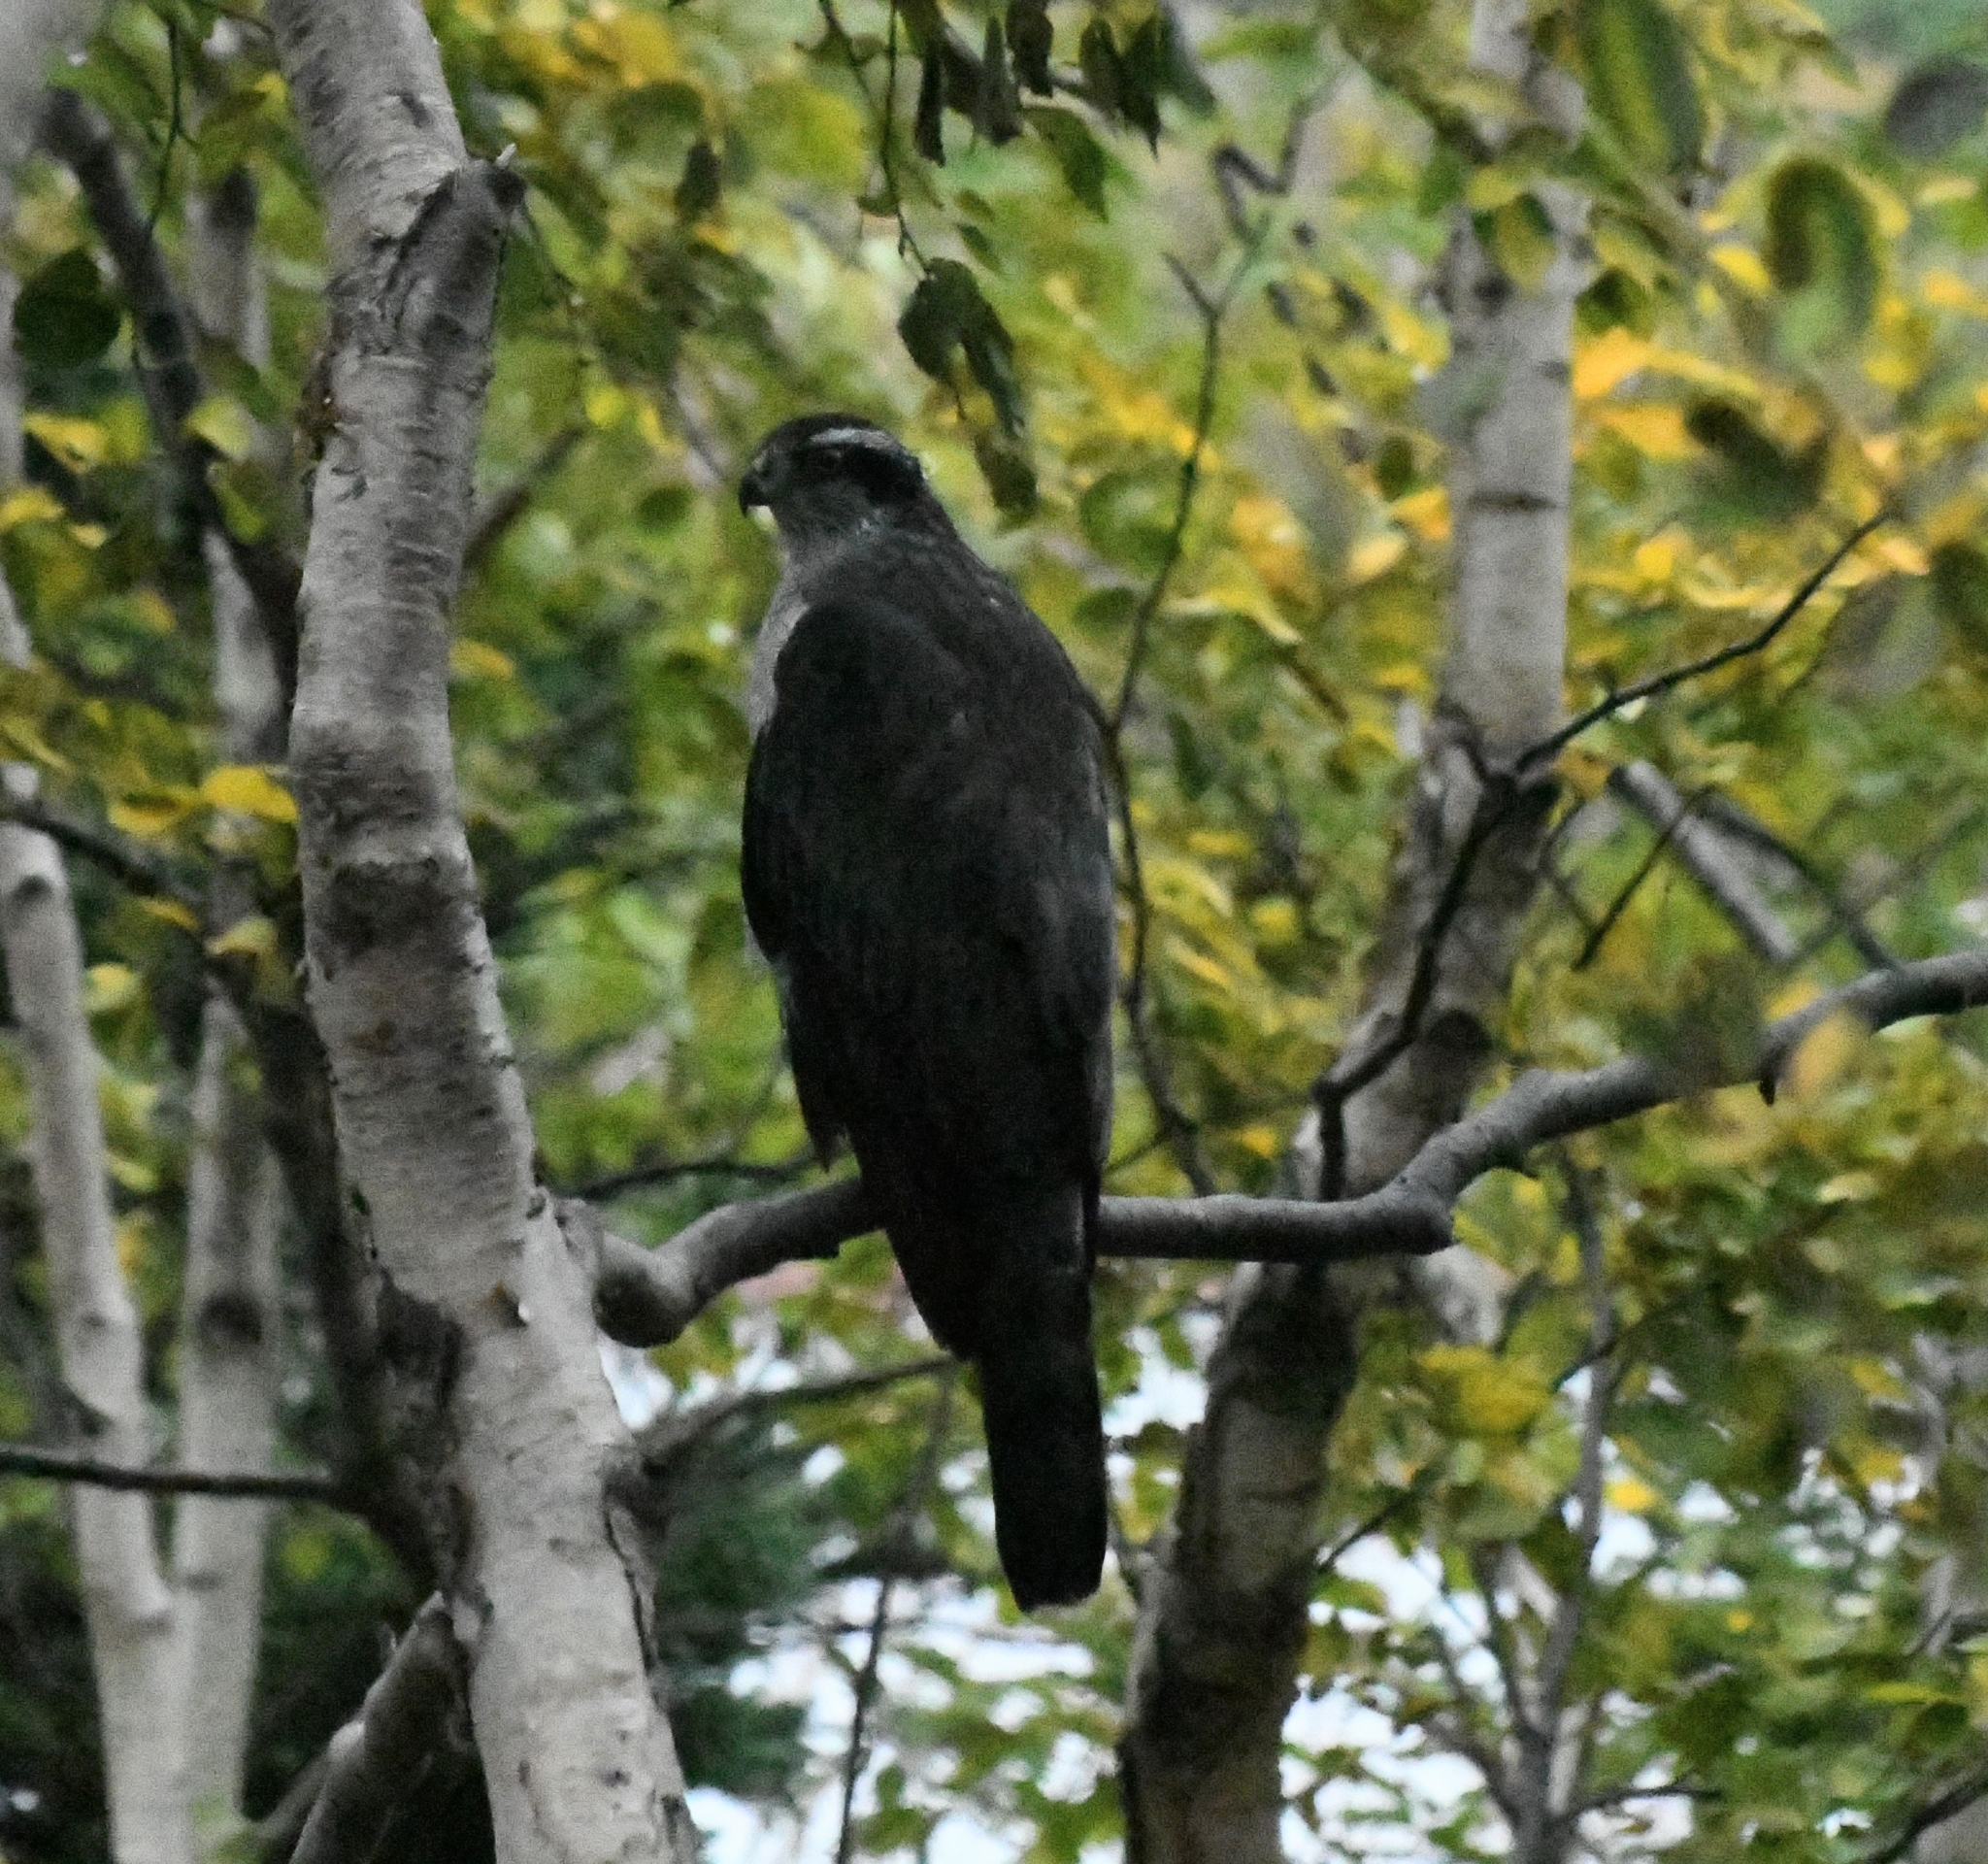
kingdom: Animalia
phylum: Chordata
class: Aves
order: Accipitriformes
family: Accipitridae
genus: Accipiter
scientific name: Accipiter gentilis
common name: Northern goshawk
